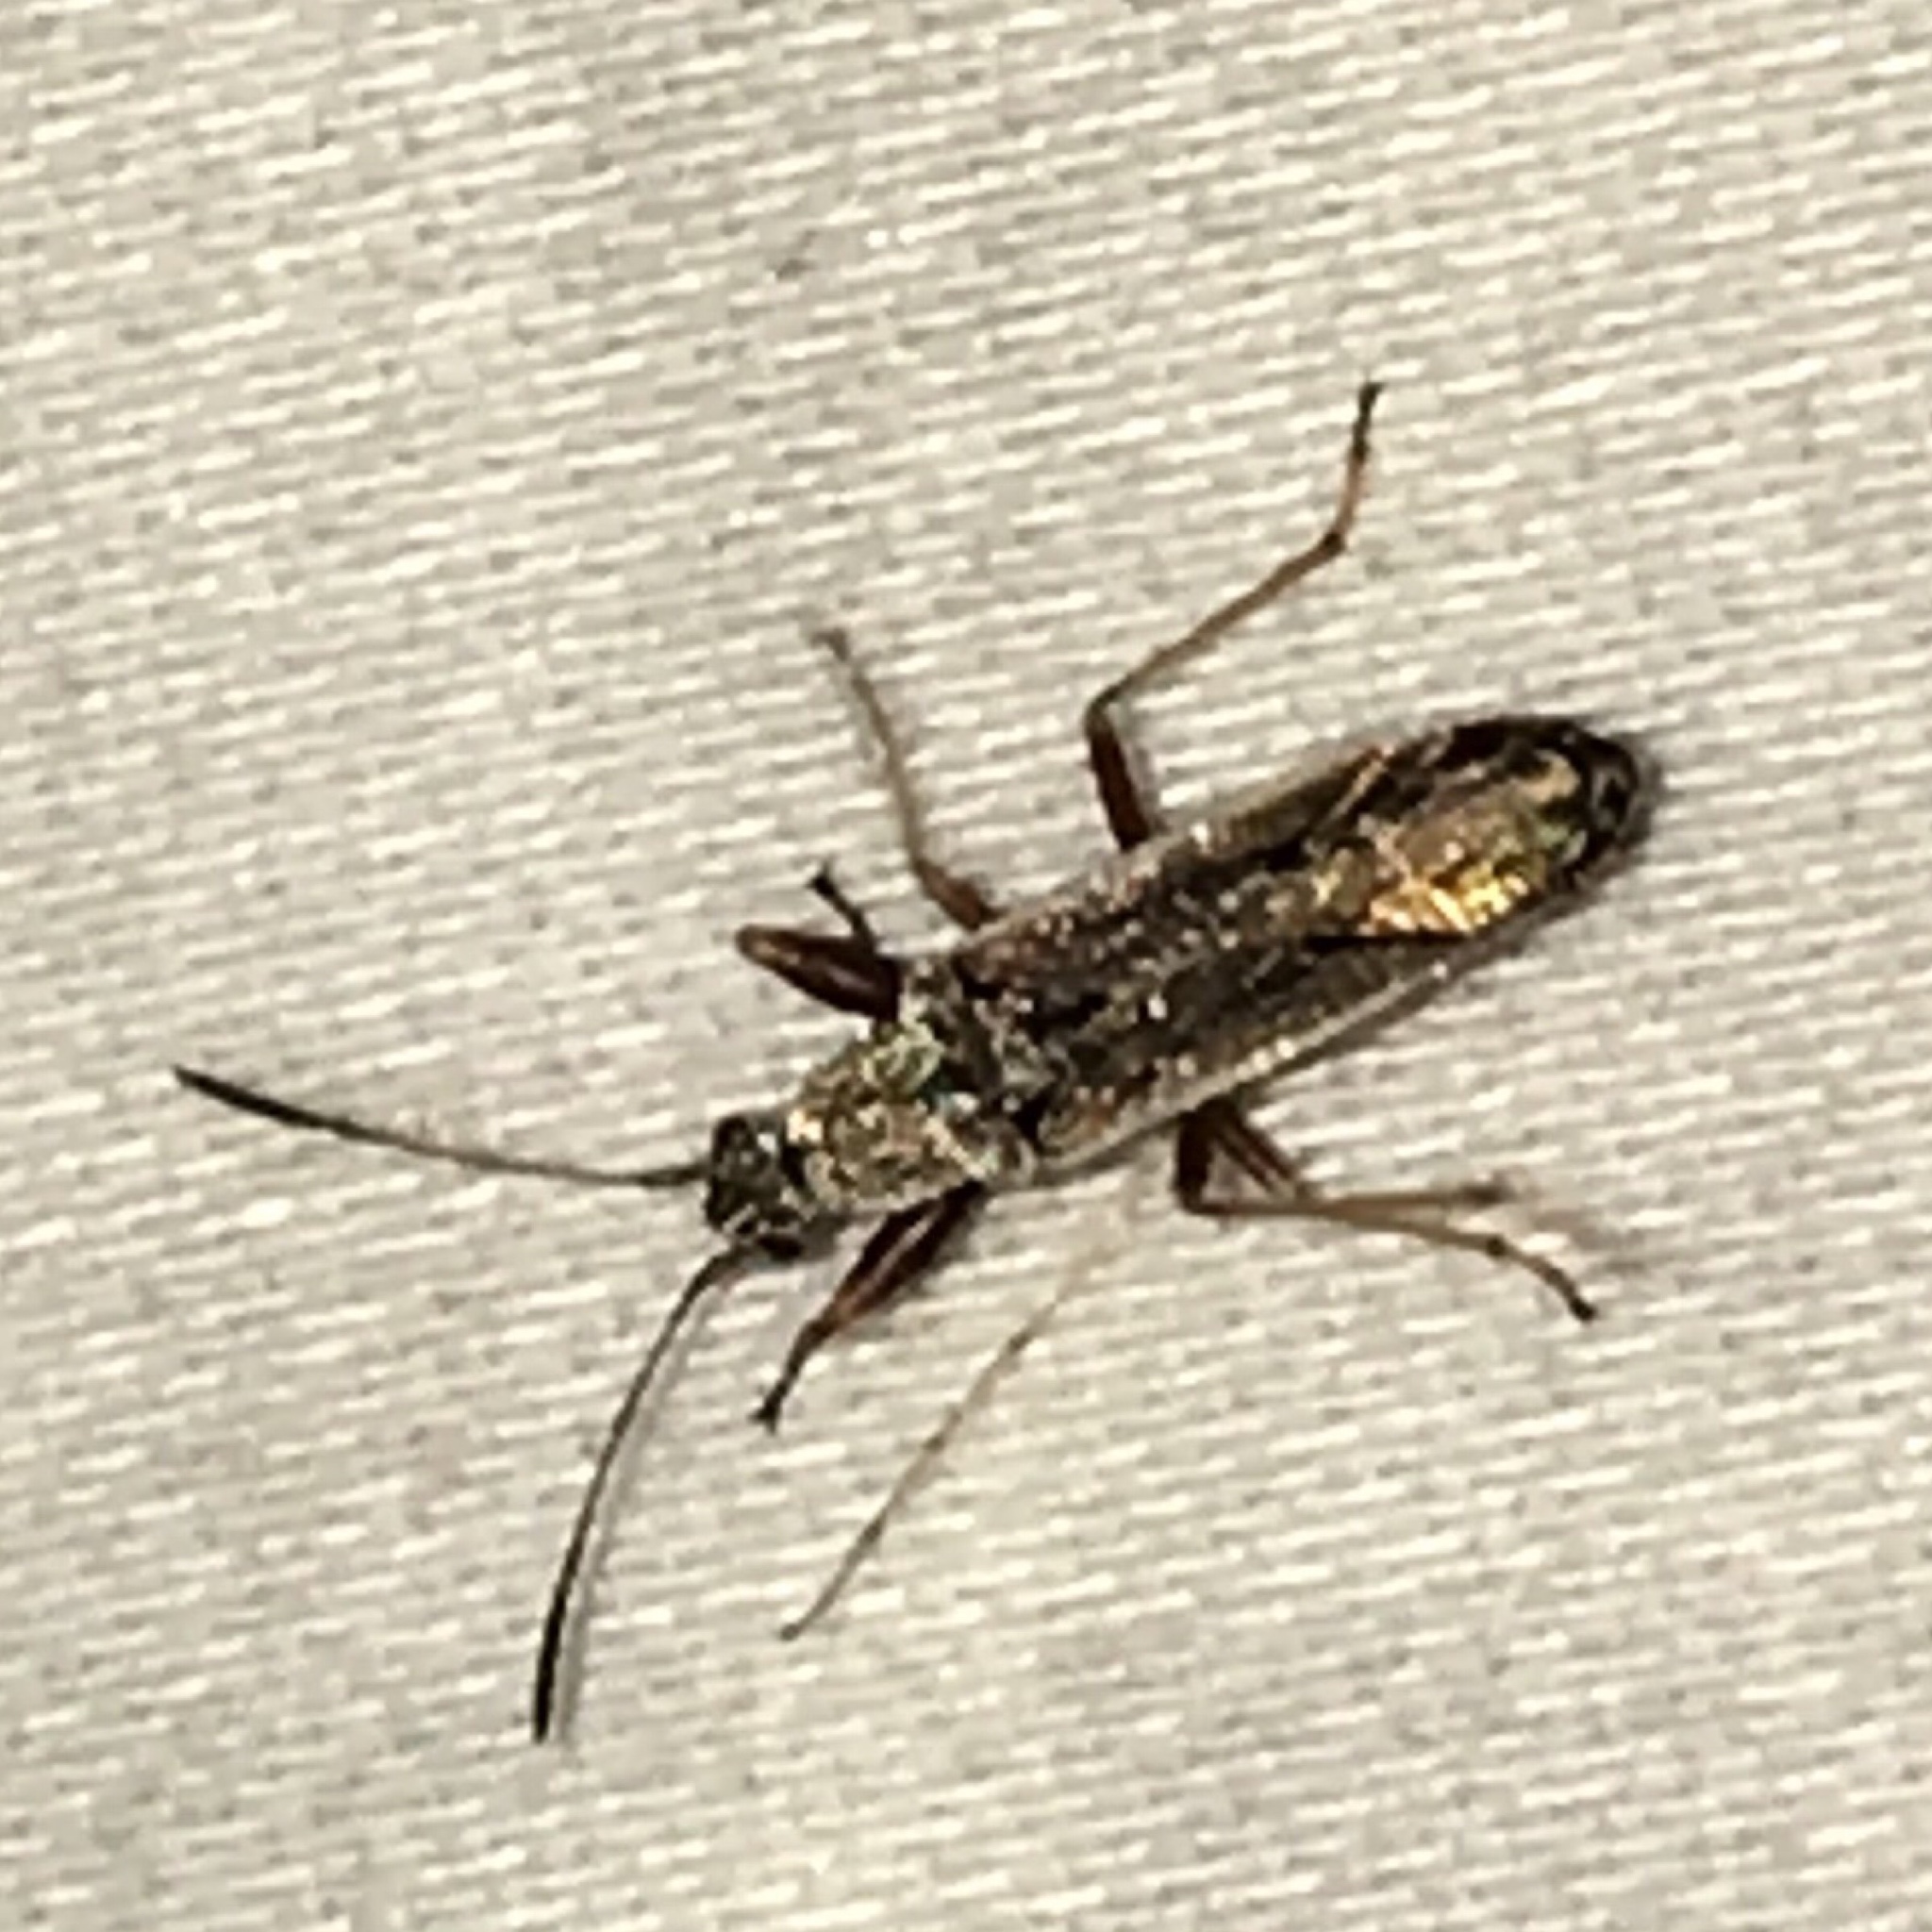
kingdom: Animalia
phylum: Arthropoda
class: Insecta
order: Hemiptera
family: Rhyparochromidae
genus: Paromius
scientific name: Paromius longulus
